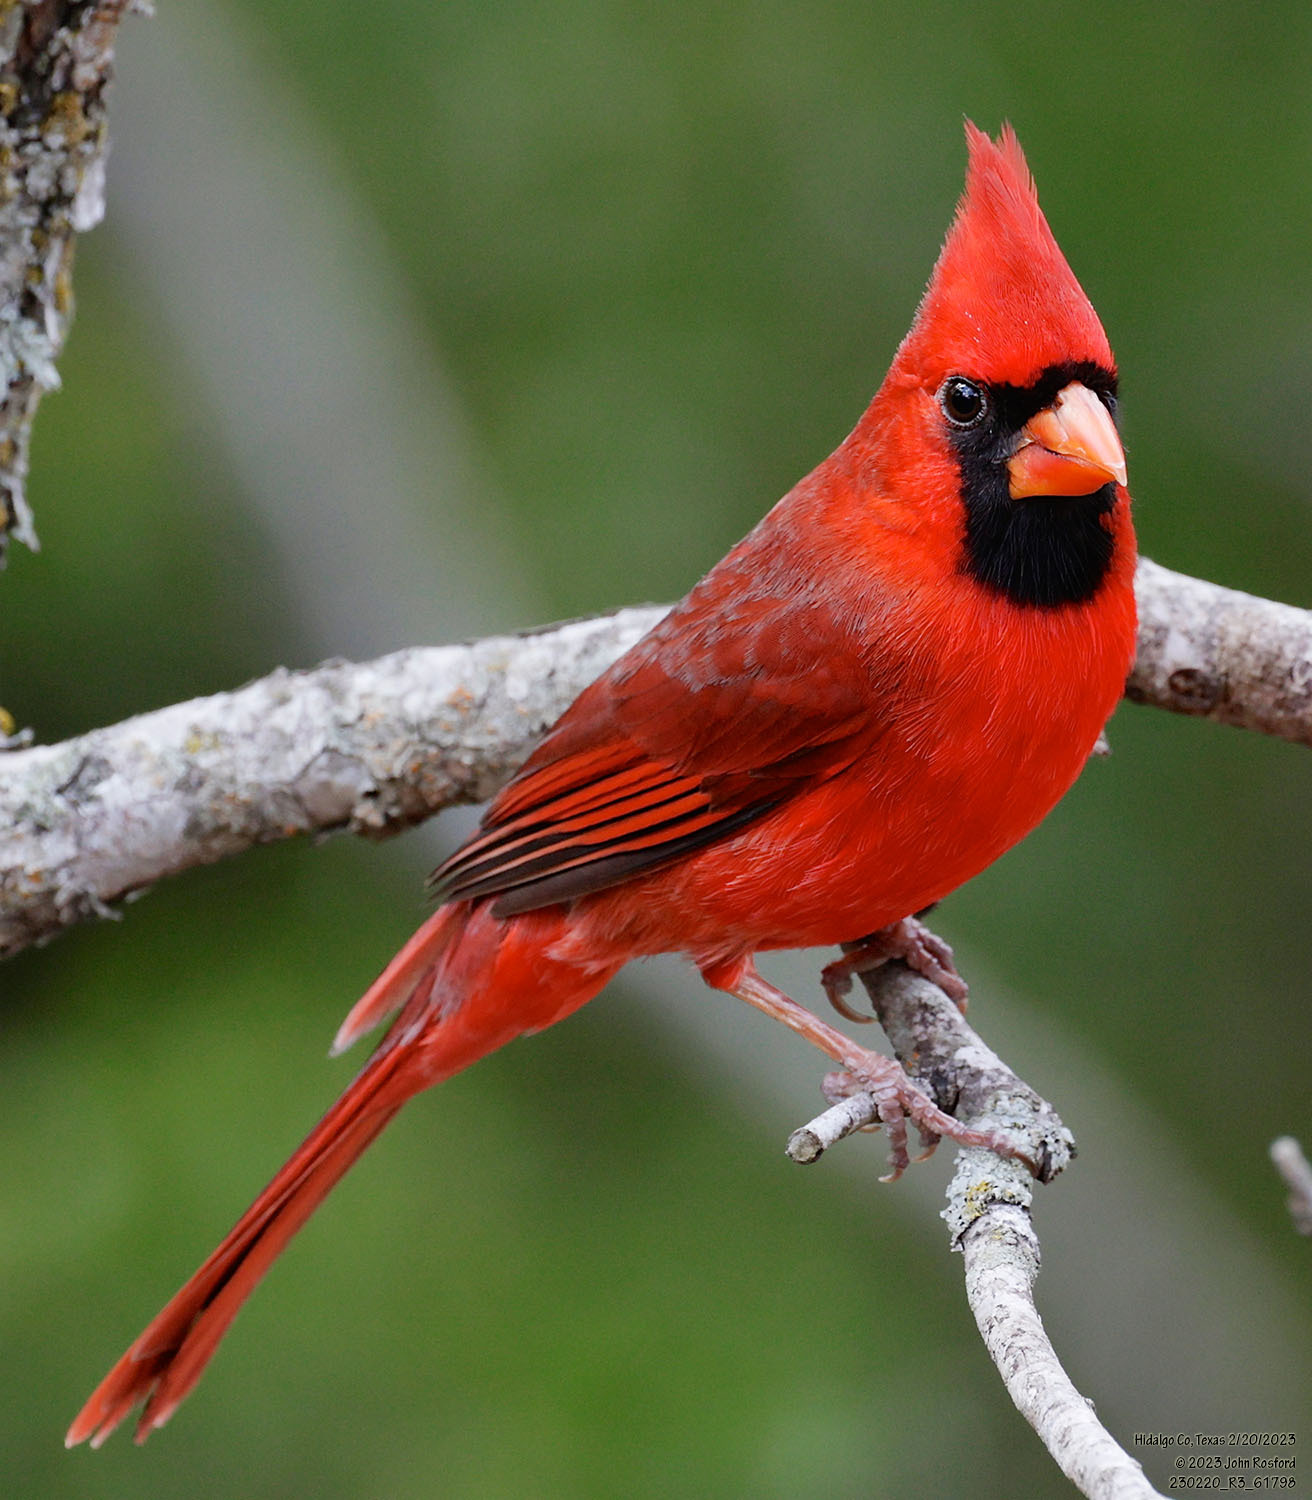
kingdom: Animalia
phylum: Chordata
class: Aves
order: Passeriformes
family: Cardinalidae
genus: Cardinalis
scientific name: Cardinalis cardinalis
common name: Northern cardinal
